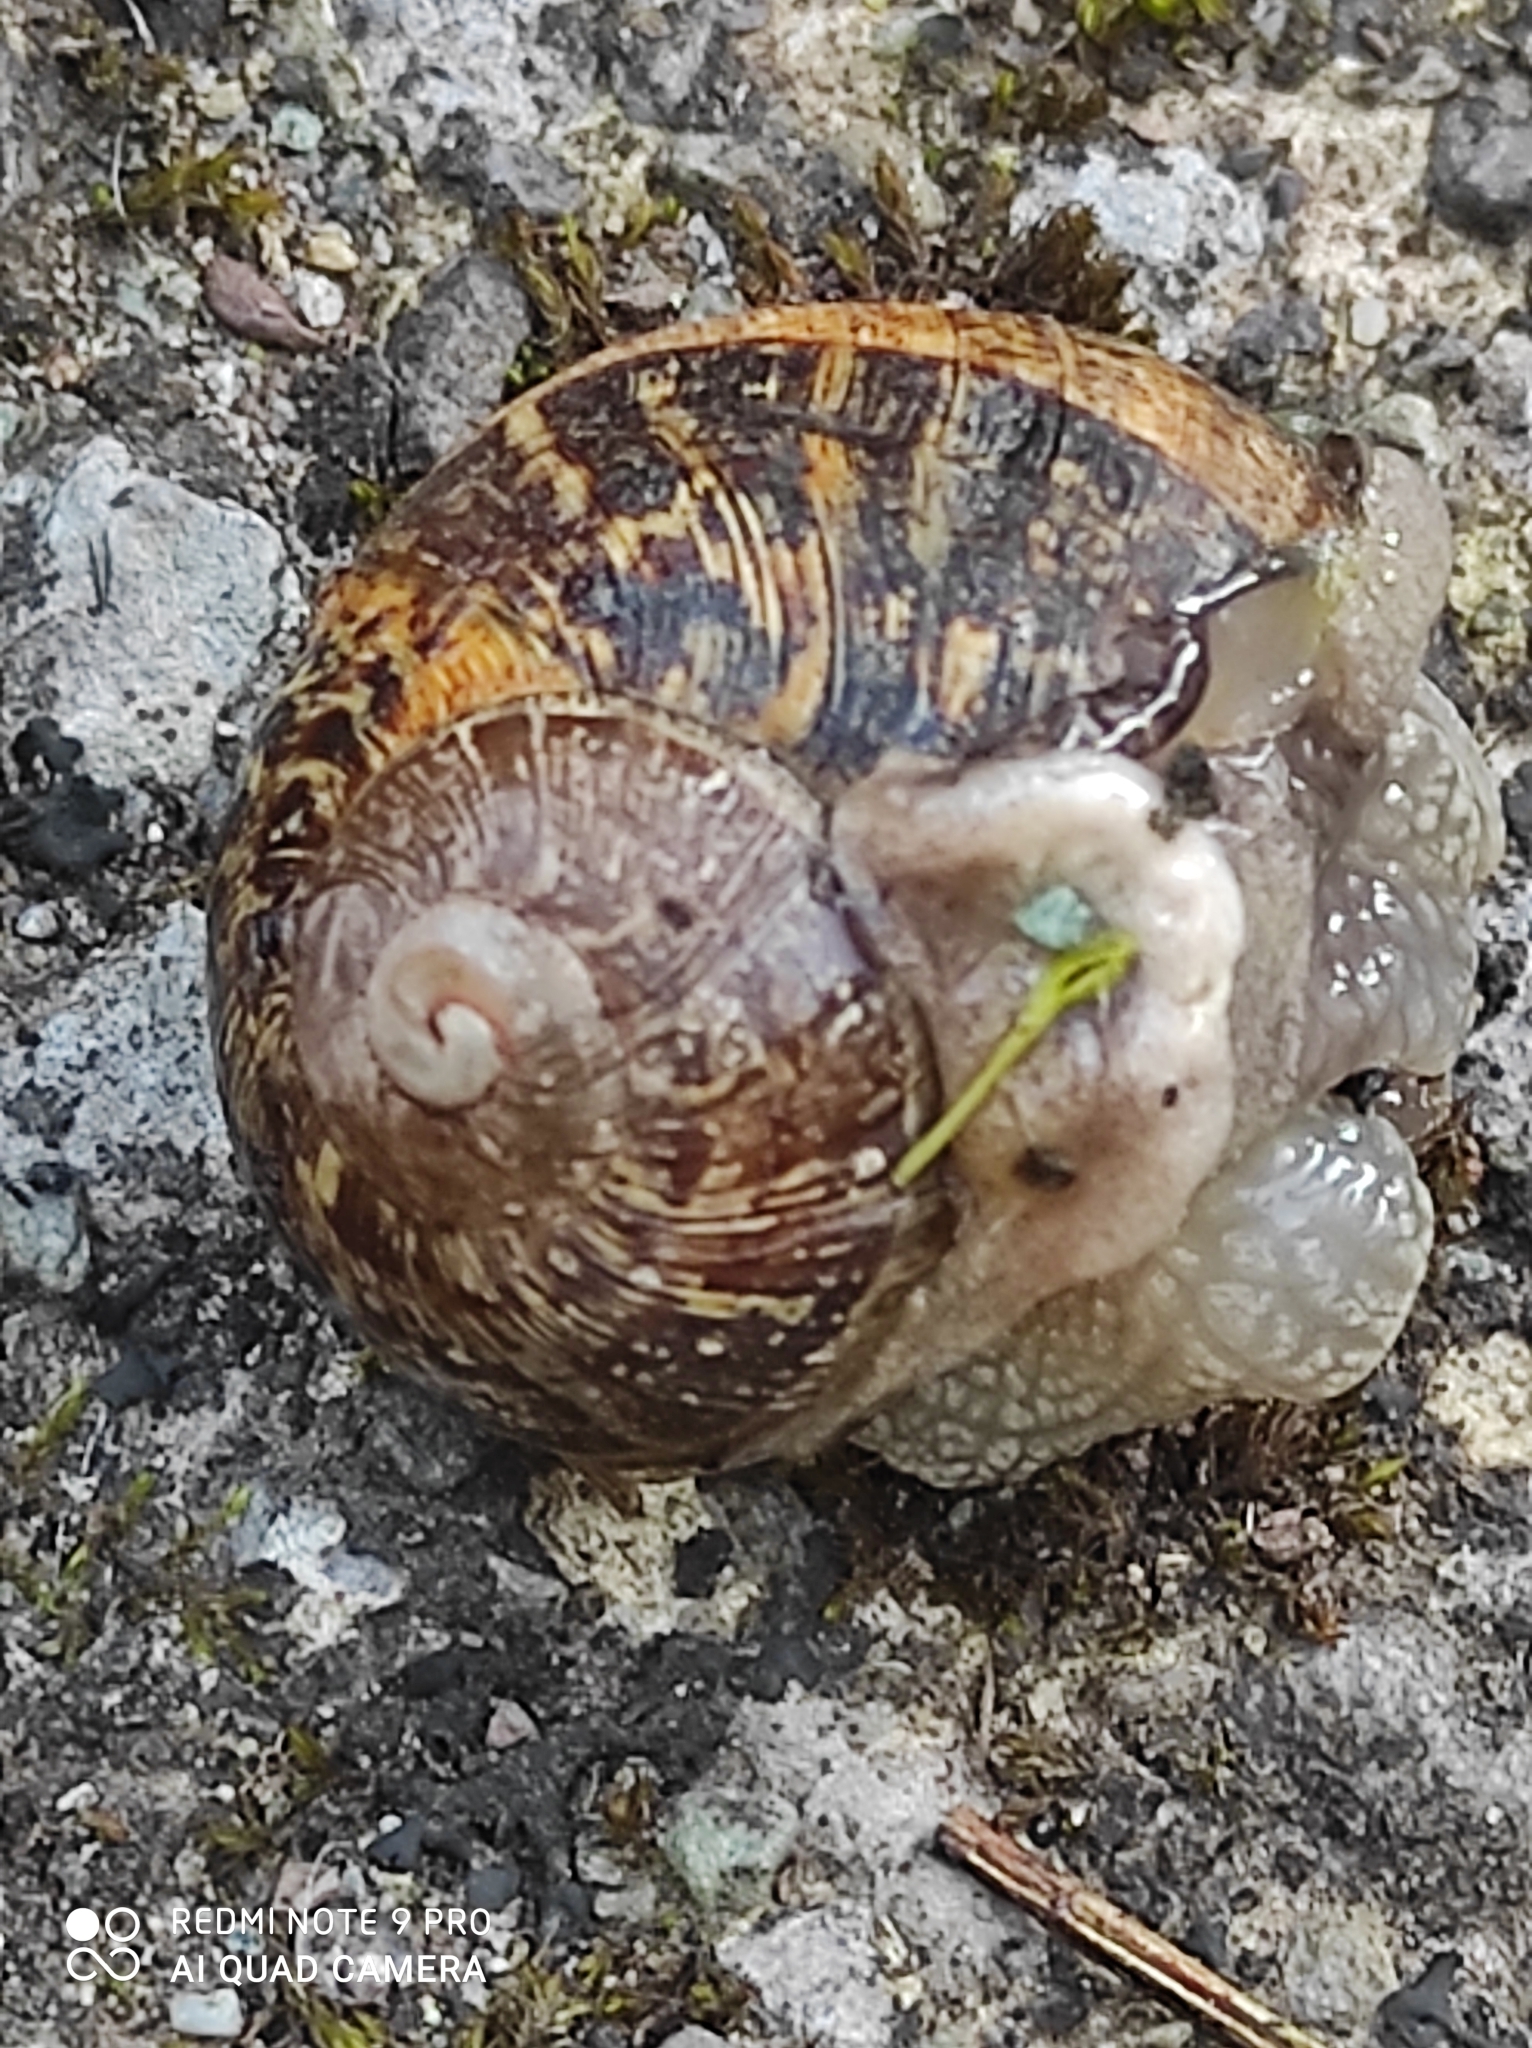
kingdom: Animalia
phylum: Mollusca
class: Gastropoda
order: Stylommatophora
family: Helicidae
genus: Cornu
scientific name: Cornu aspersum
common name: Brown garden snail
